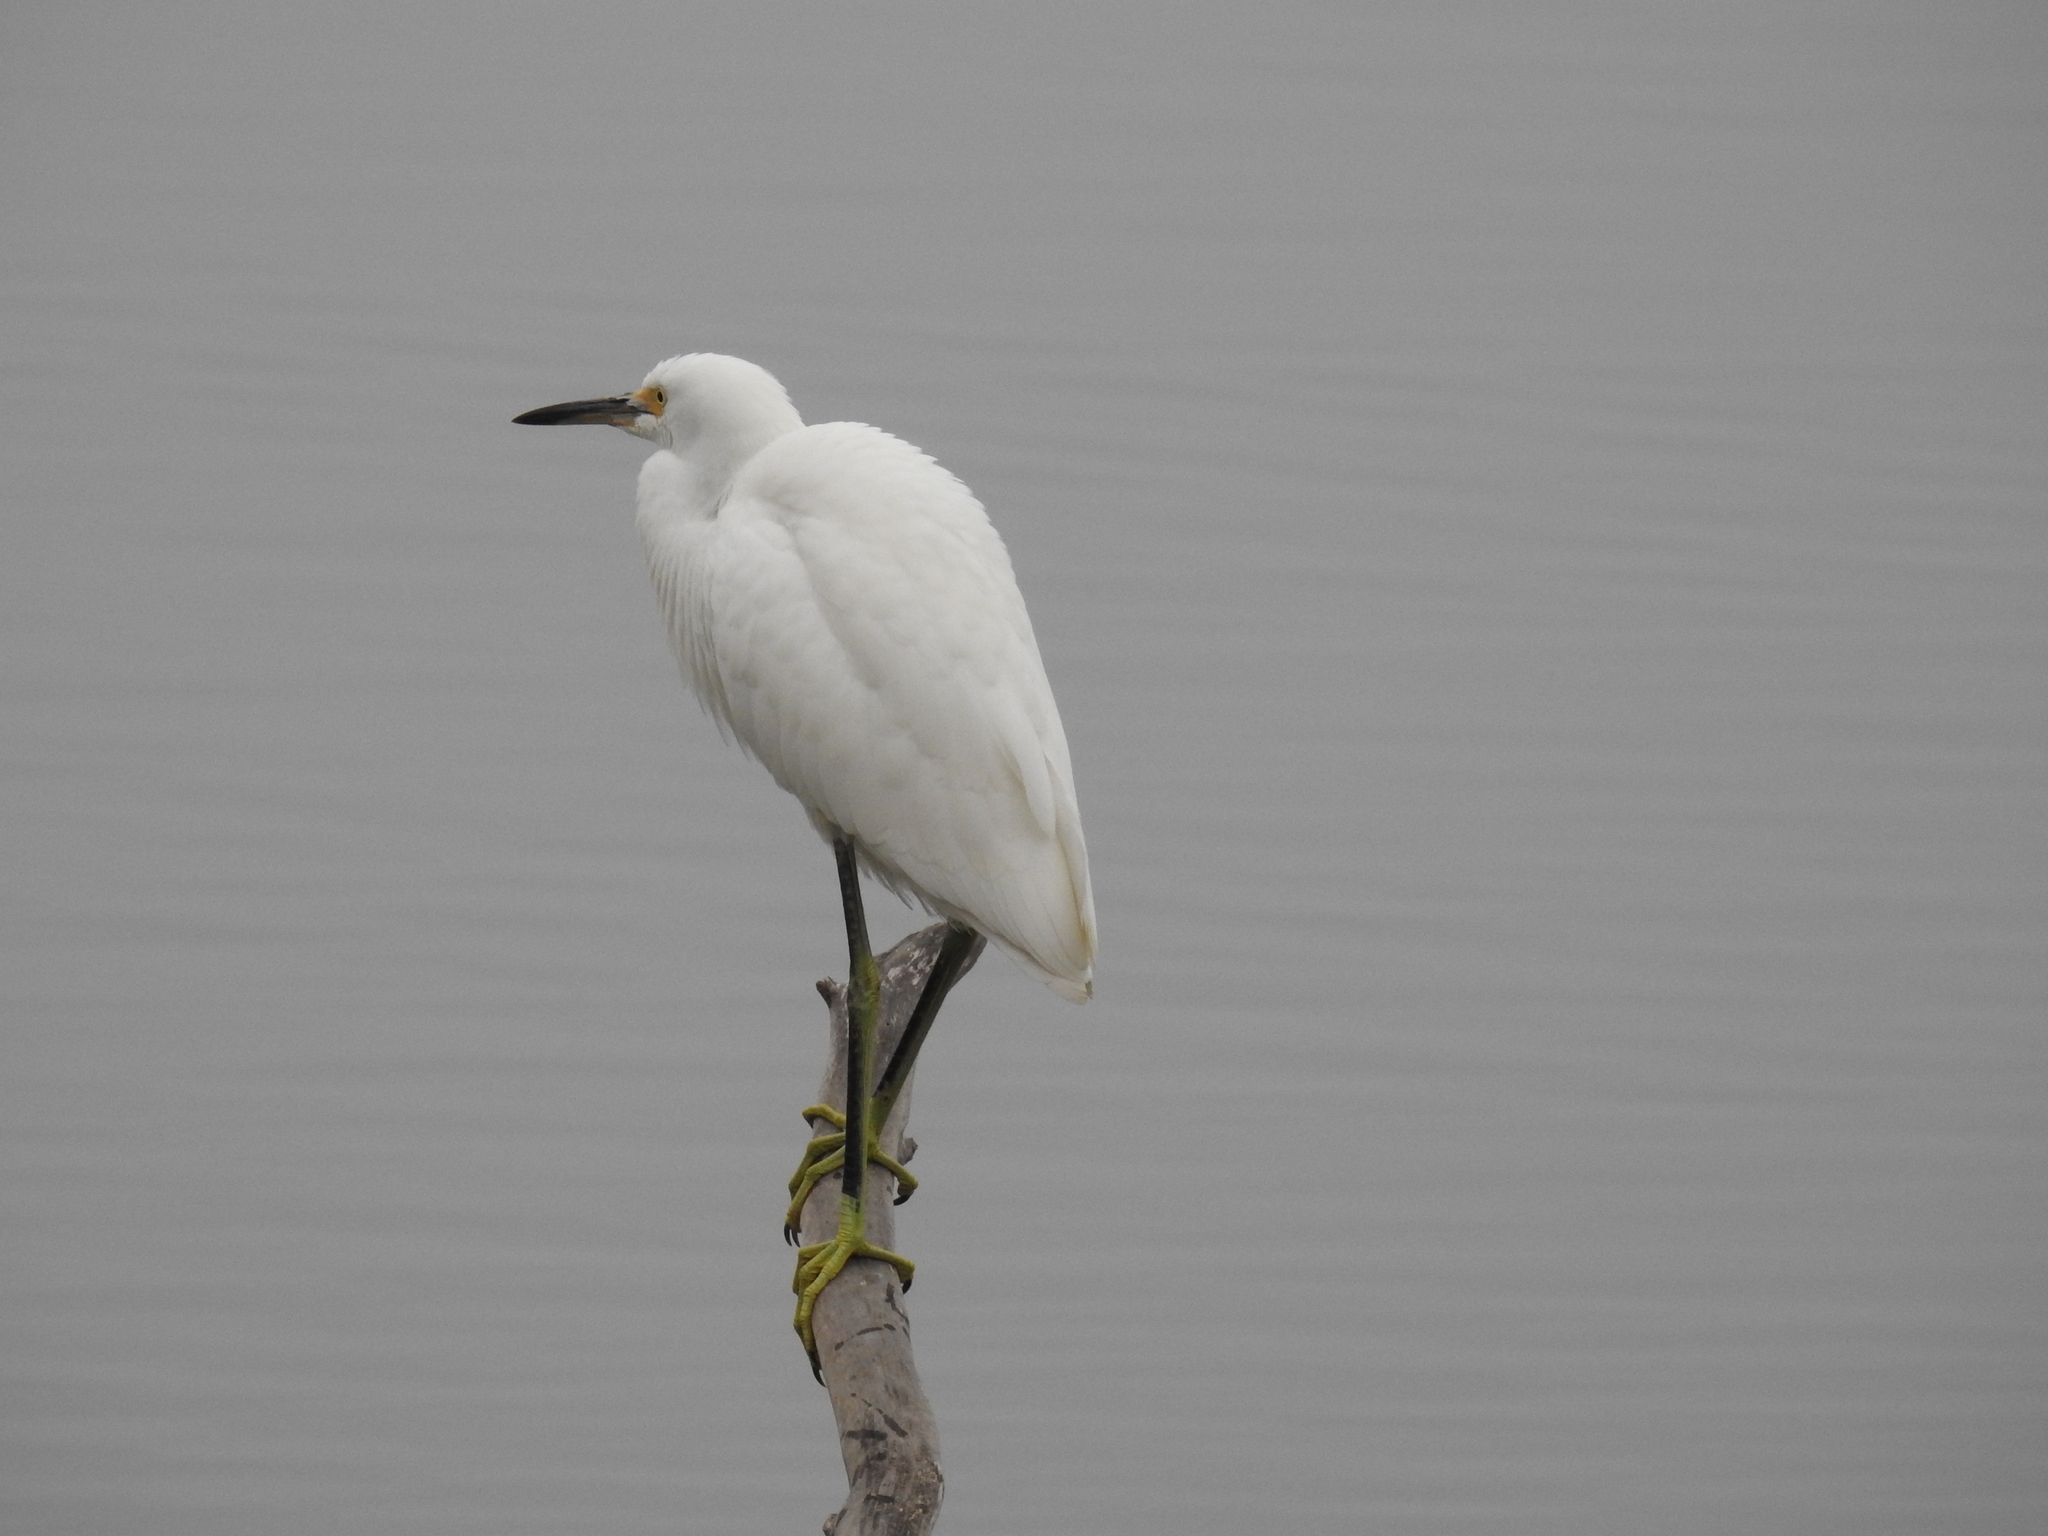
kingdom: Animalia
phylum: Chordata
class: Aves
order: Pelecaniformes
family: Ardeidae
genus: Egretta
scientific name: Egretta thula
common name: Snowy egret
